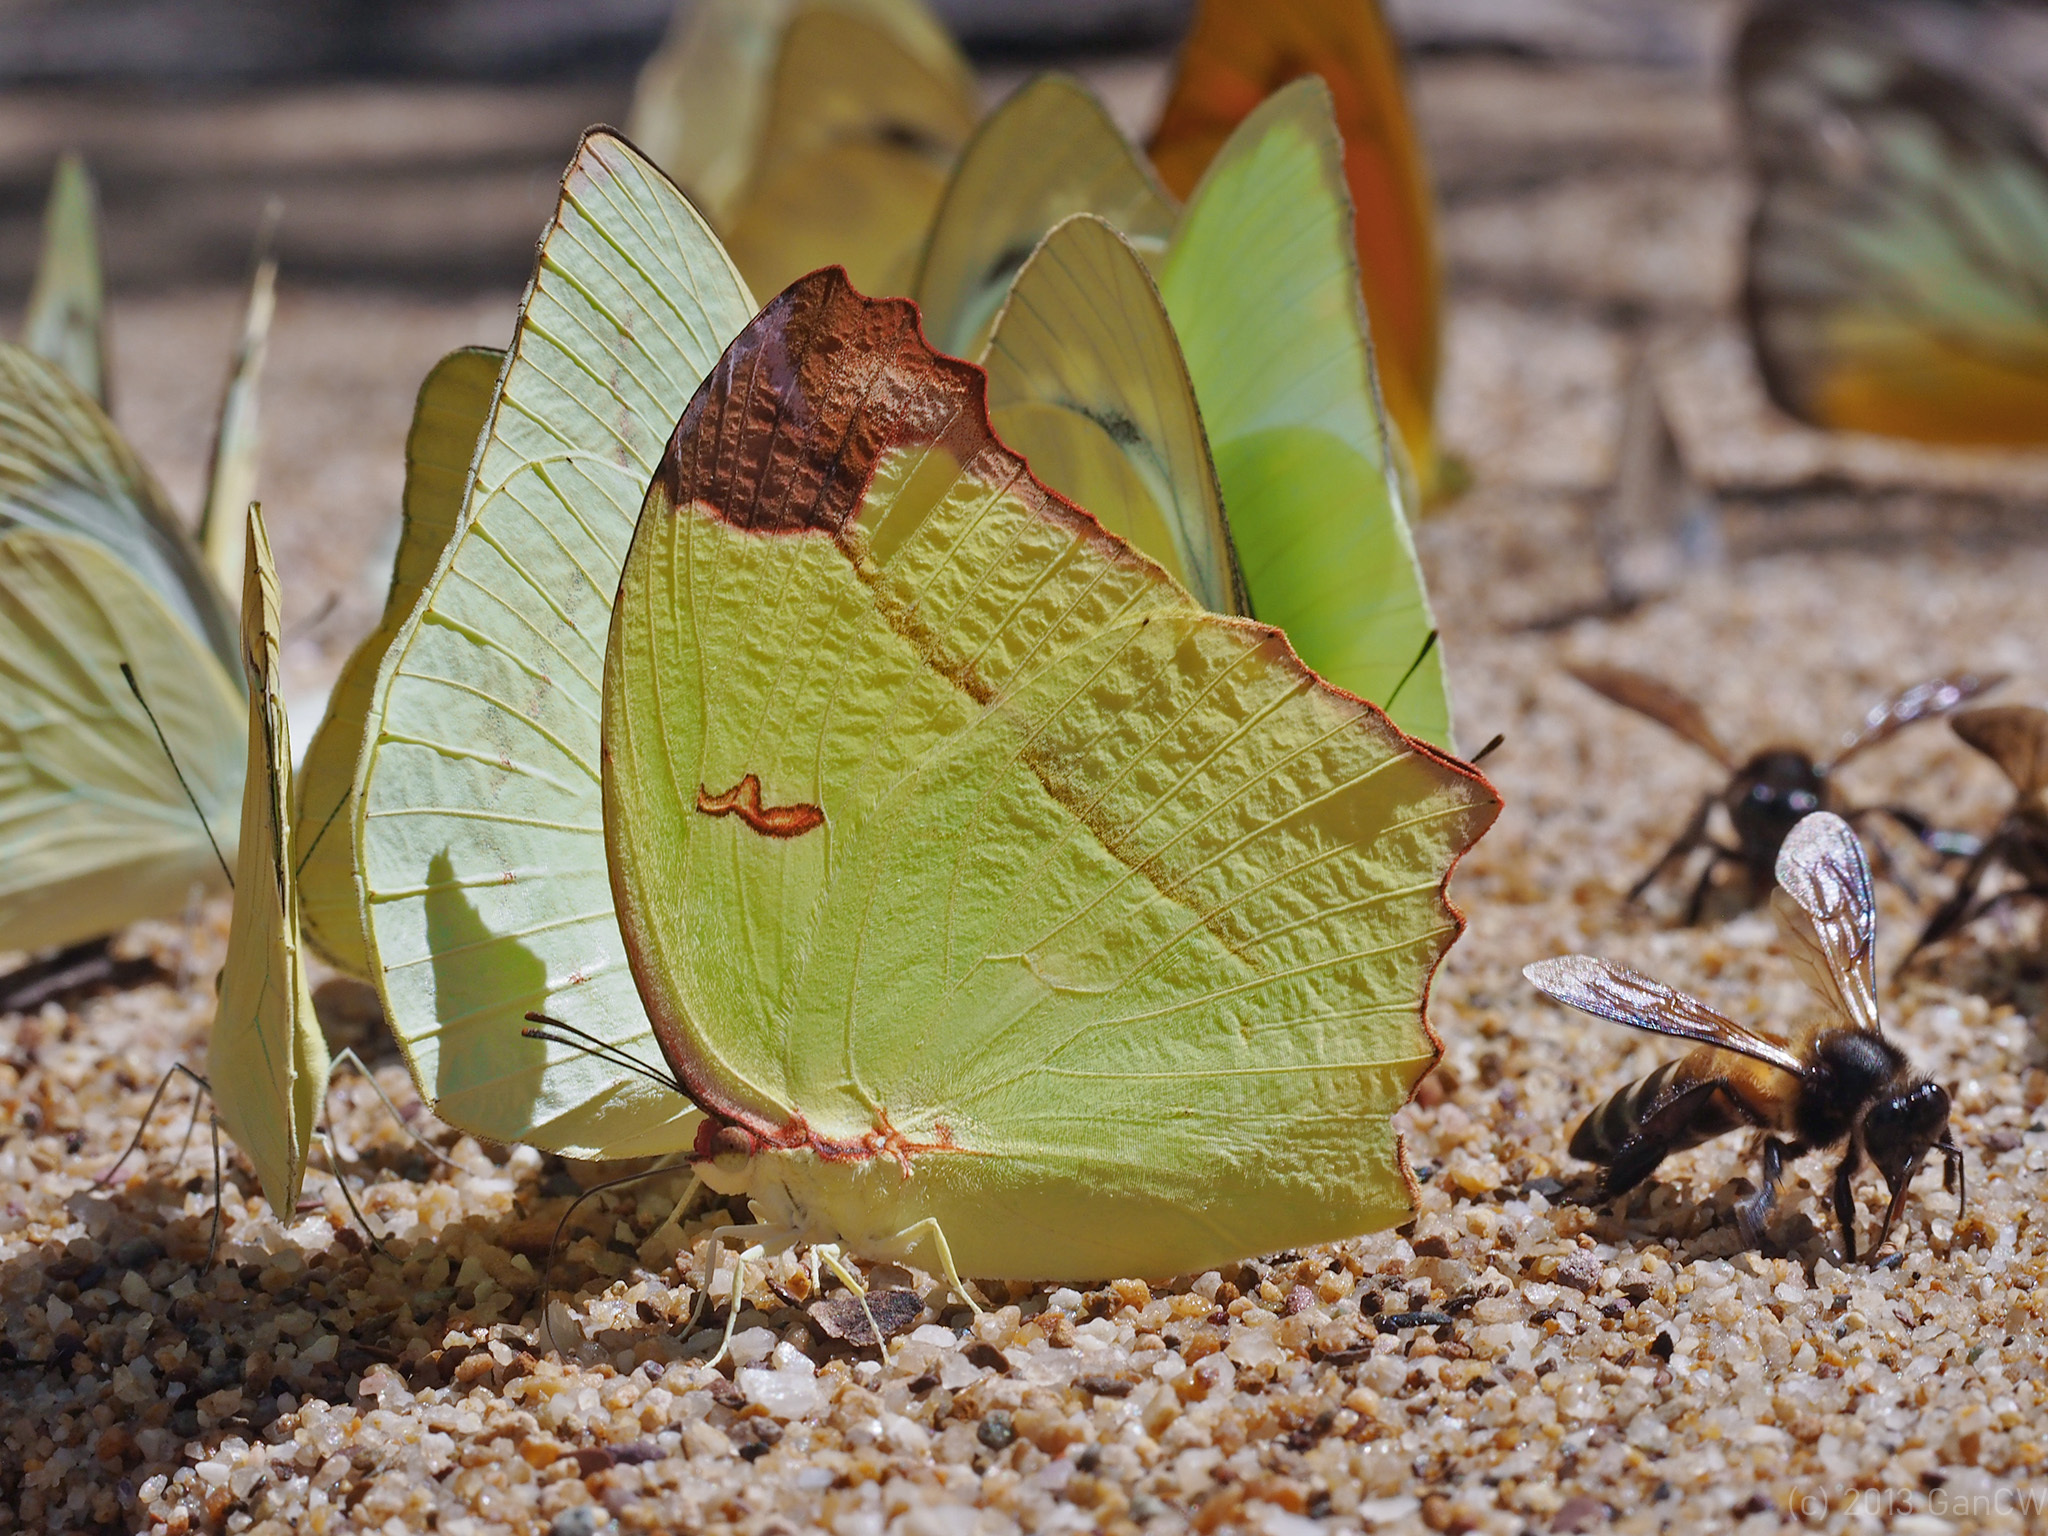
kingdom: Animalia
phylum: Arthropoda
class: Insecta
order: Lepidoptera
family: Pieridae
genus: Dercas
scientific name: Dercas gobrias
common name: Angled sulfur
